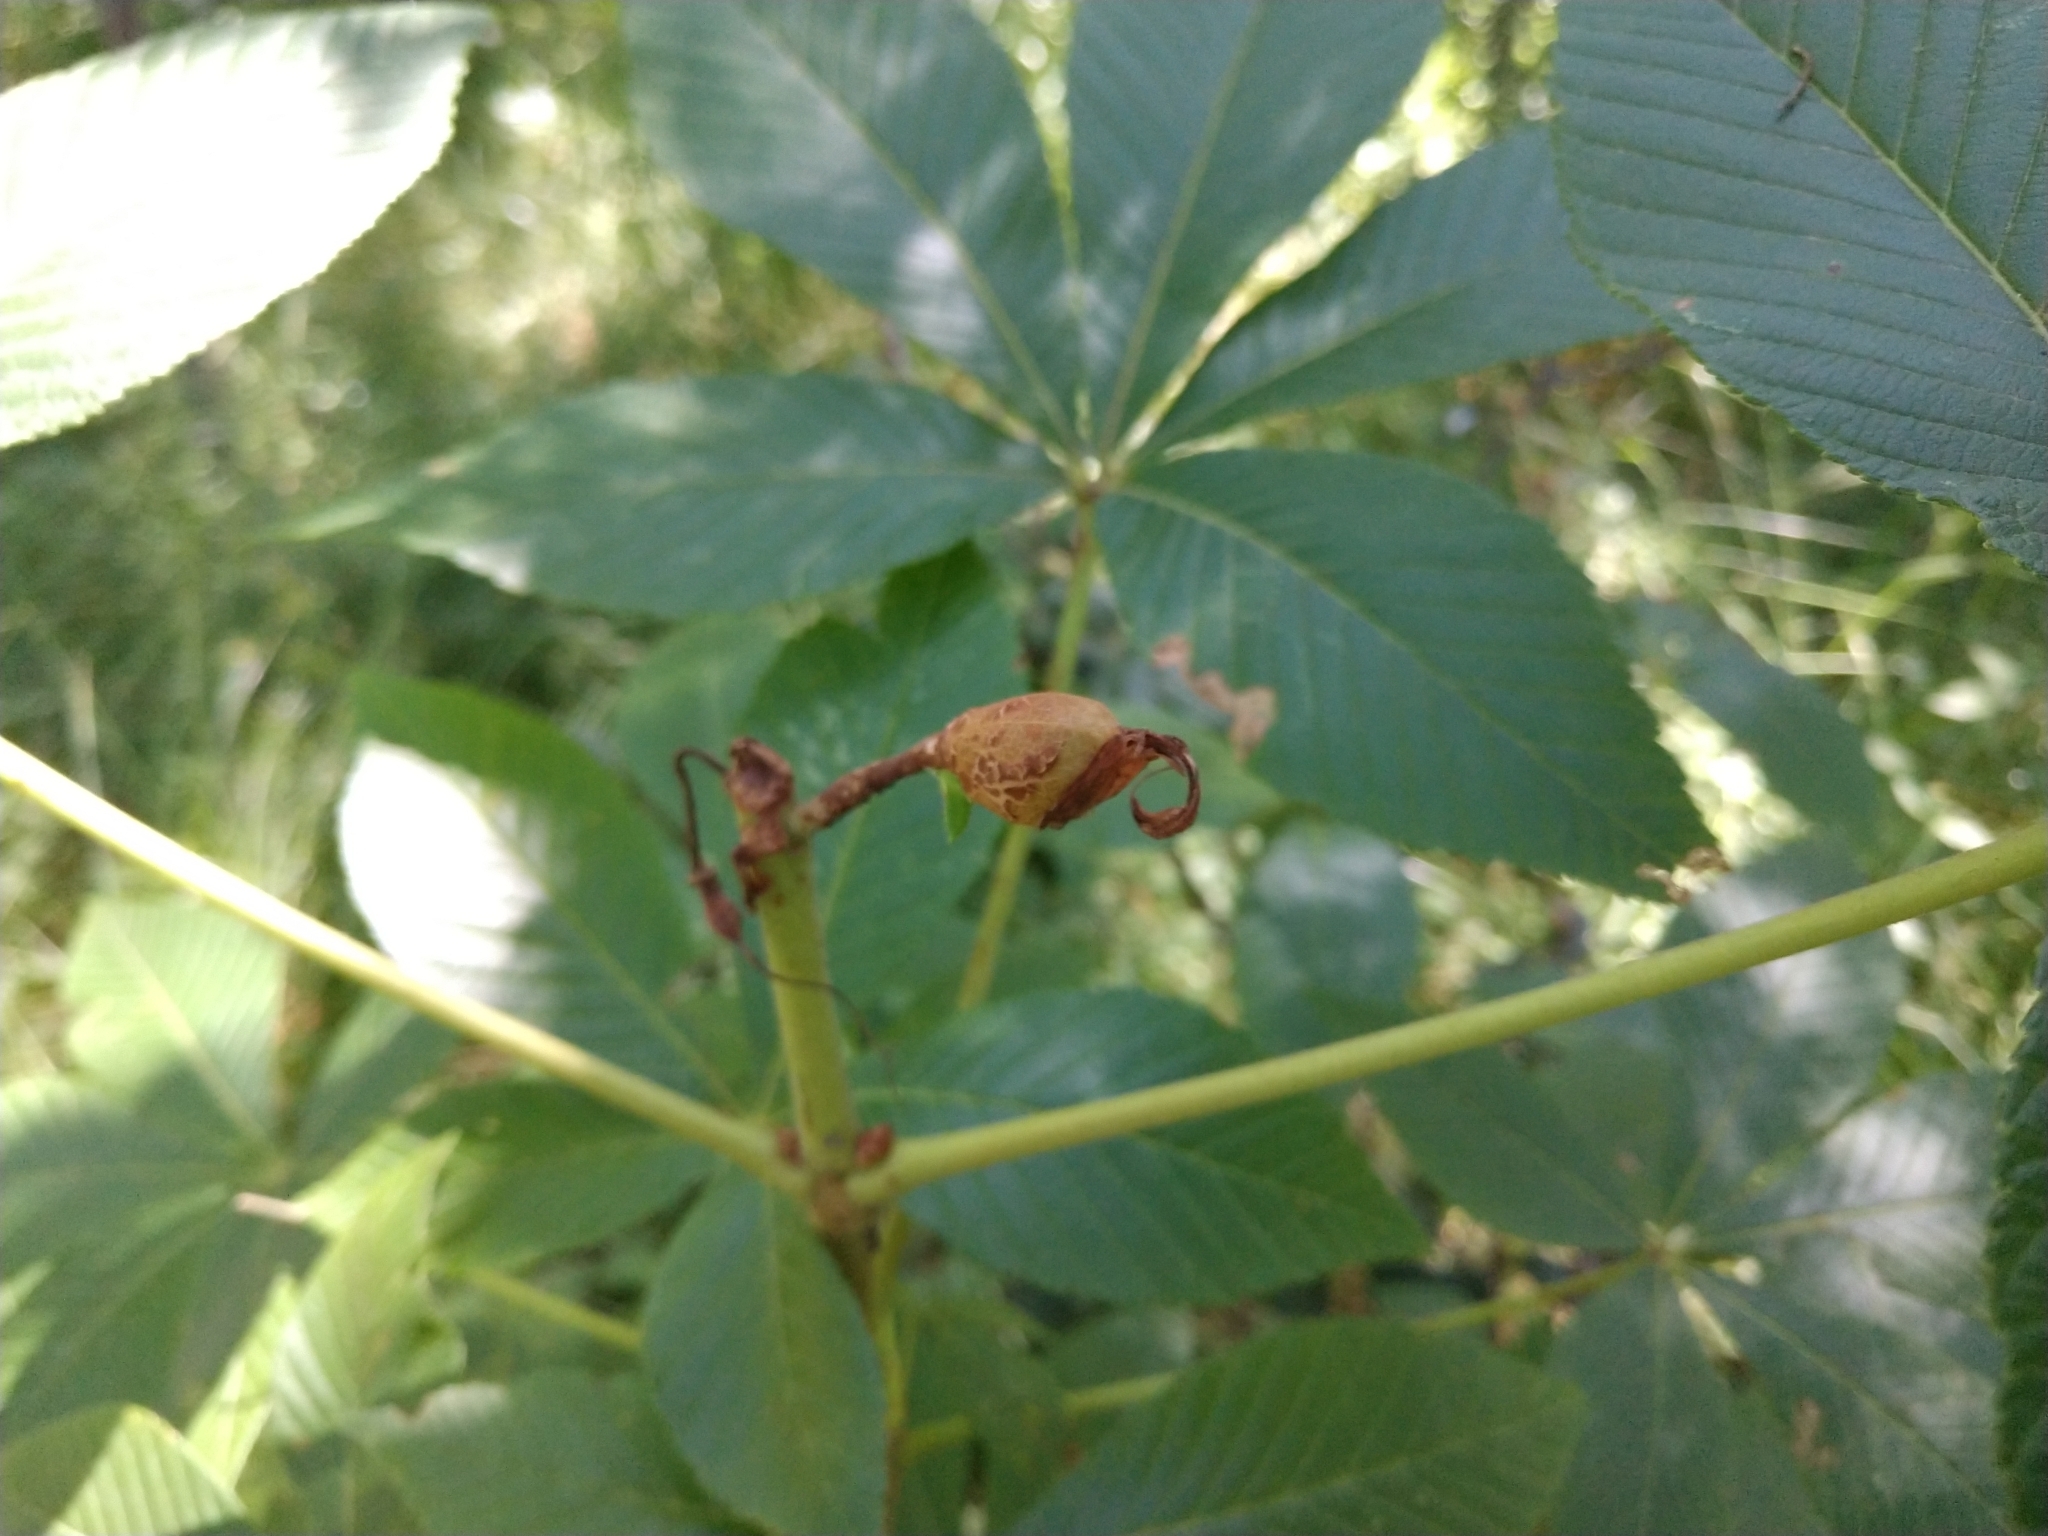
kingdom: Plantae
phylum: Tracheophyta
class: Magnoliopsida
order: Sapindales
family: Sapindaceae
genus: Aesculus
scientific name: Aesculus pavia
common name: Red buckeye
